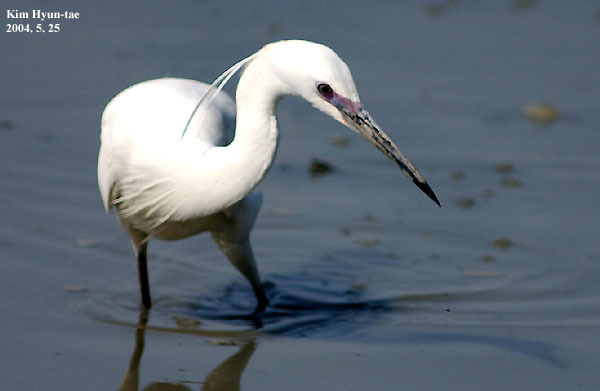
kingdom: Animalia
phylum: Chordata
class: Aves
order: Pelecaniformes
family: Ardeidae
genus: Egretta
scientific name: Egretta garzetta
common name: Little egret
